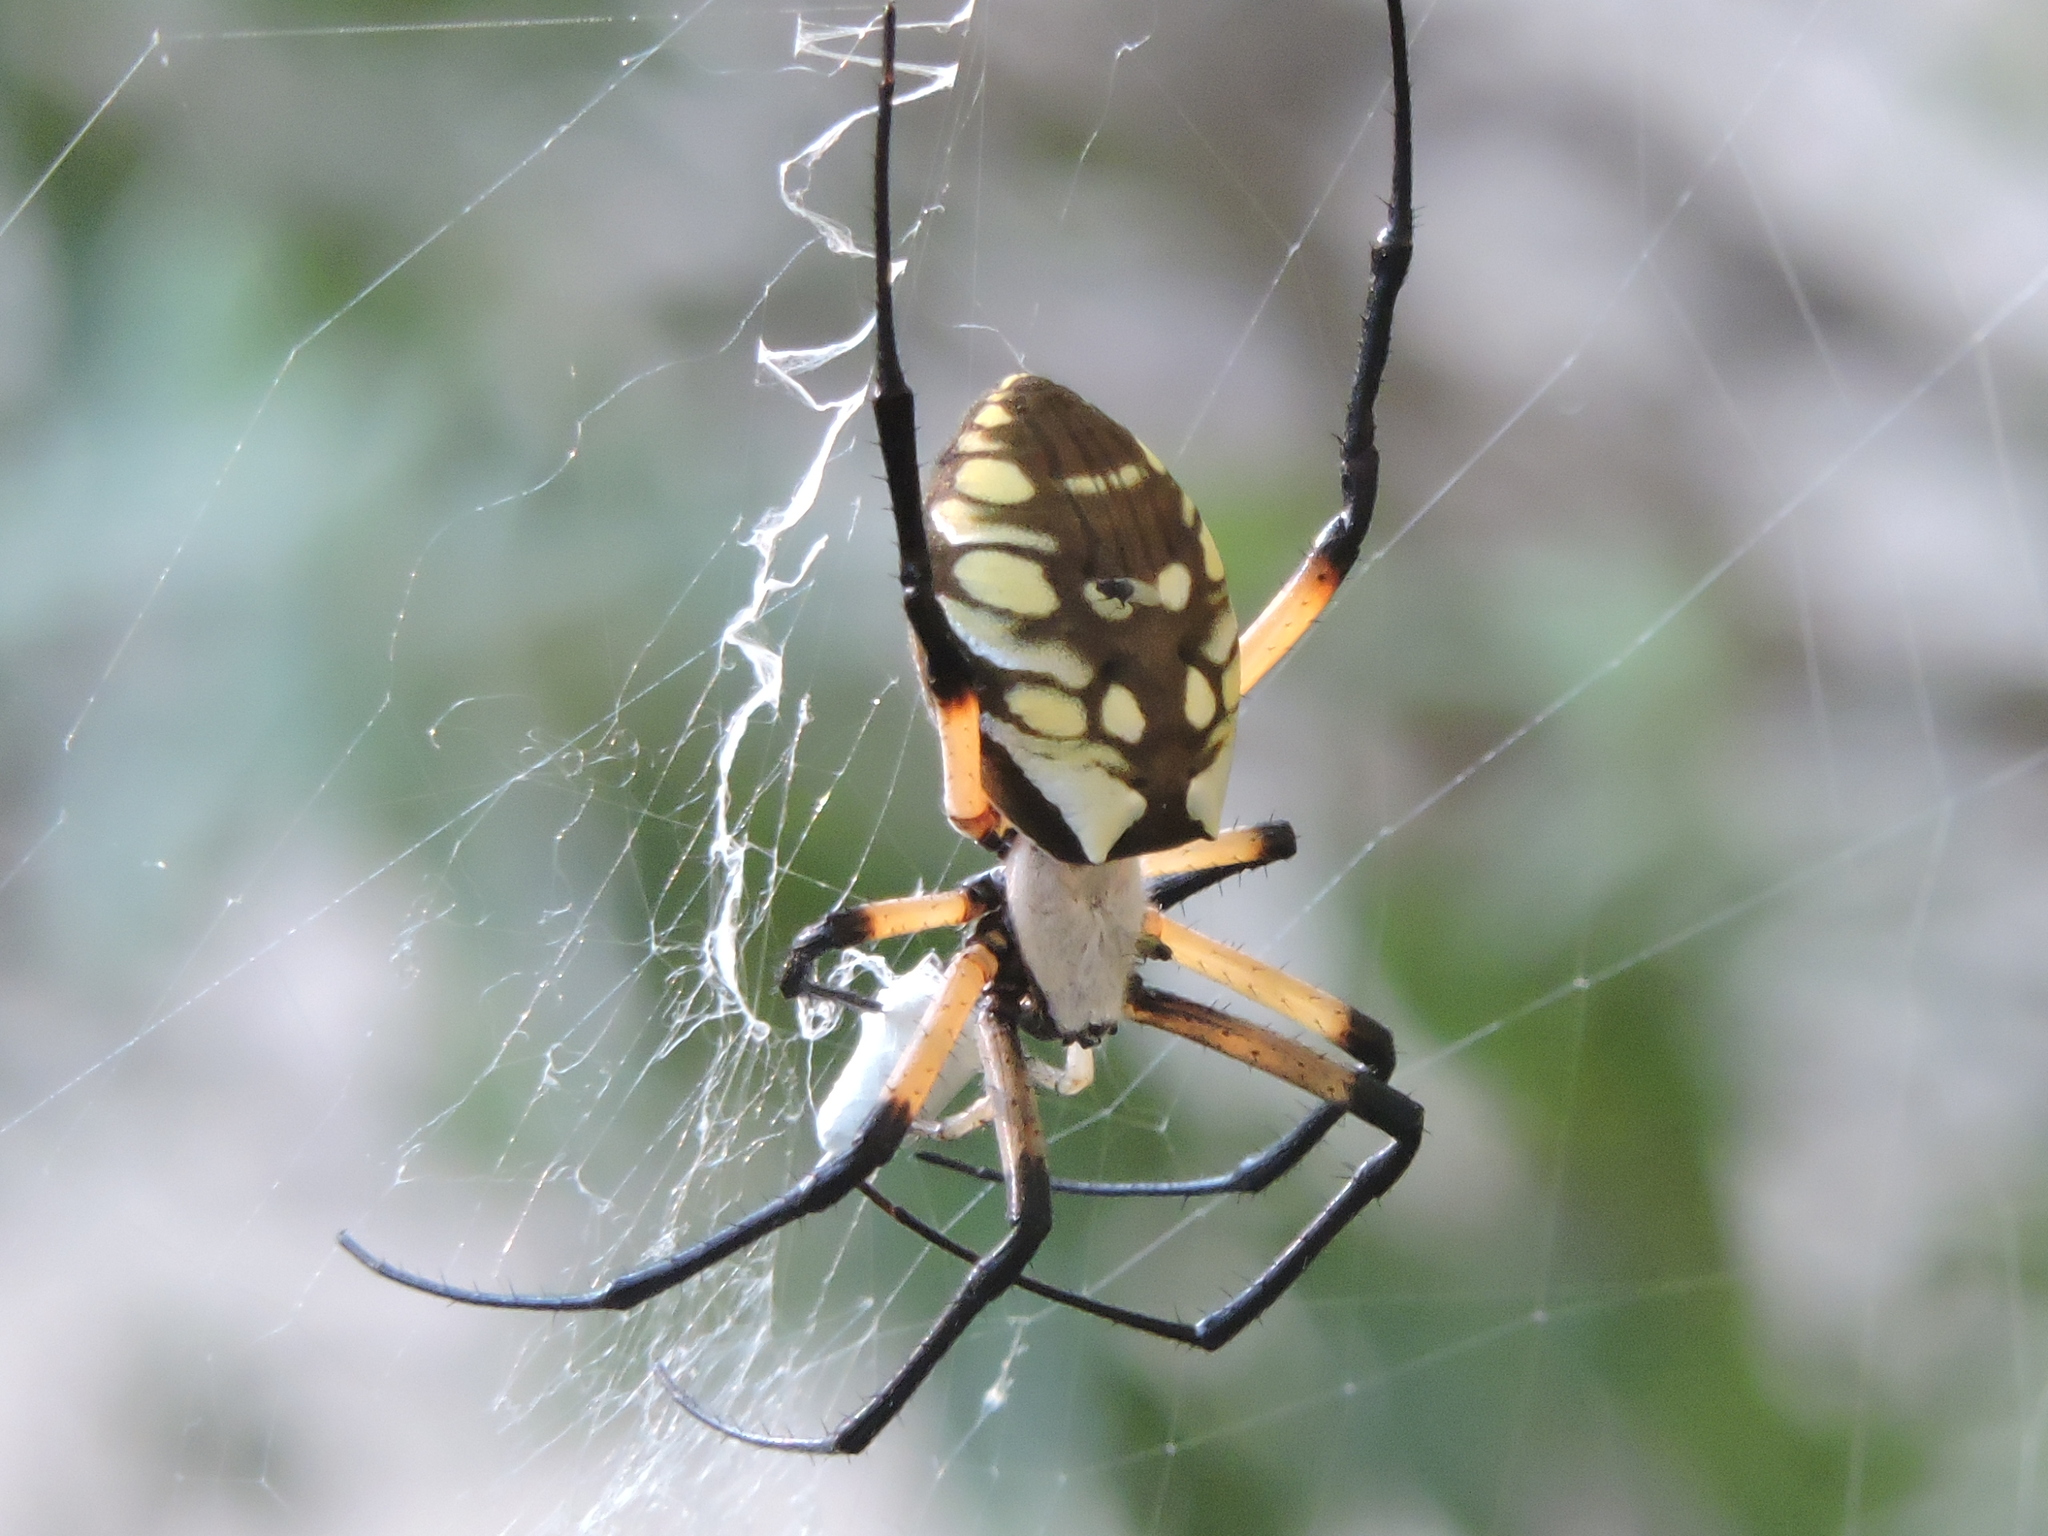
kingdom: Animalia
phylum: Arthropoda
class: Arachnida
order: Araneae
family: Araneidae
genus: Argiope
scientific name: Argiope aurantia
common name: Orb weavers
